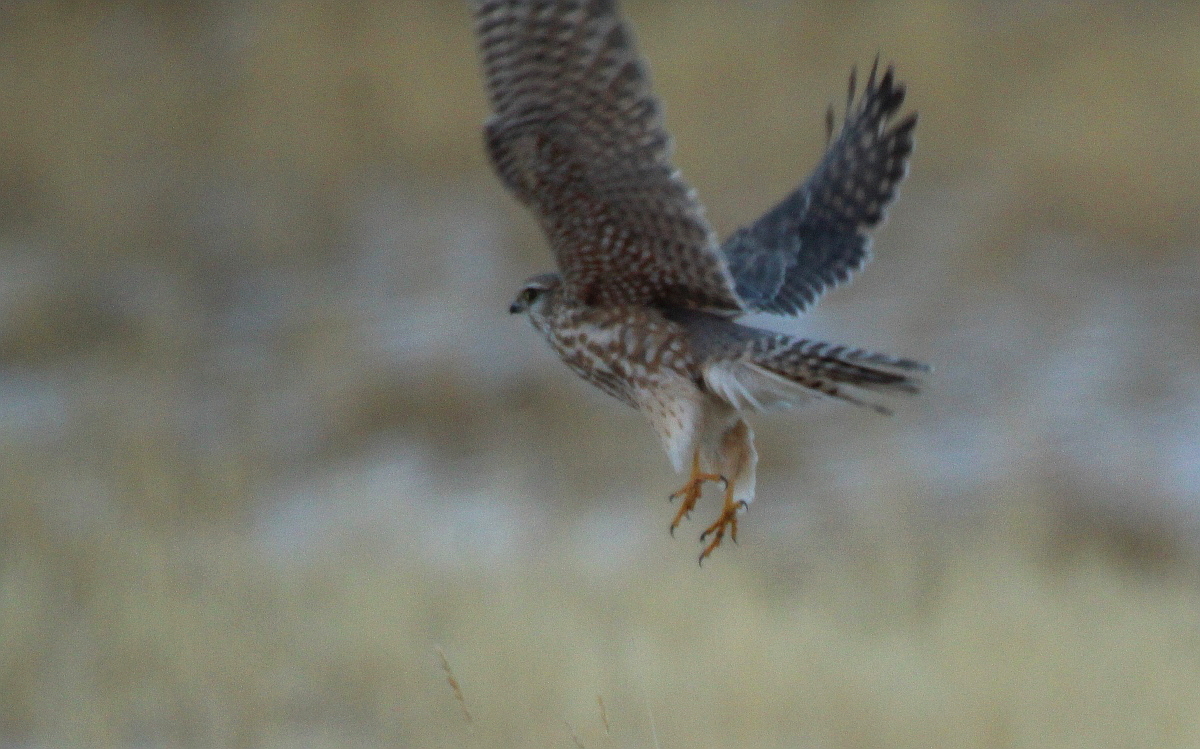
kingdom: Animalia
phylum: Chordata
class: Aves
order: Falconiformes
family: Falconidae
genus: Falco
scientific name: Falco columbarius
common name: Merlin
